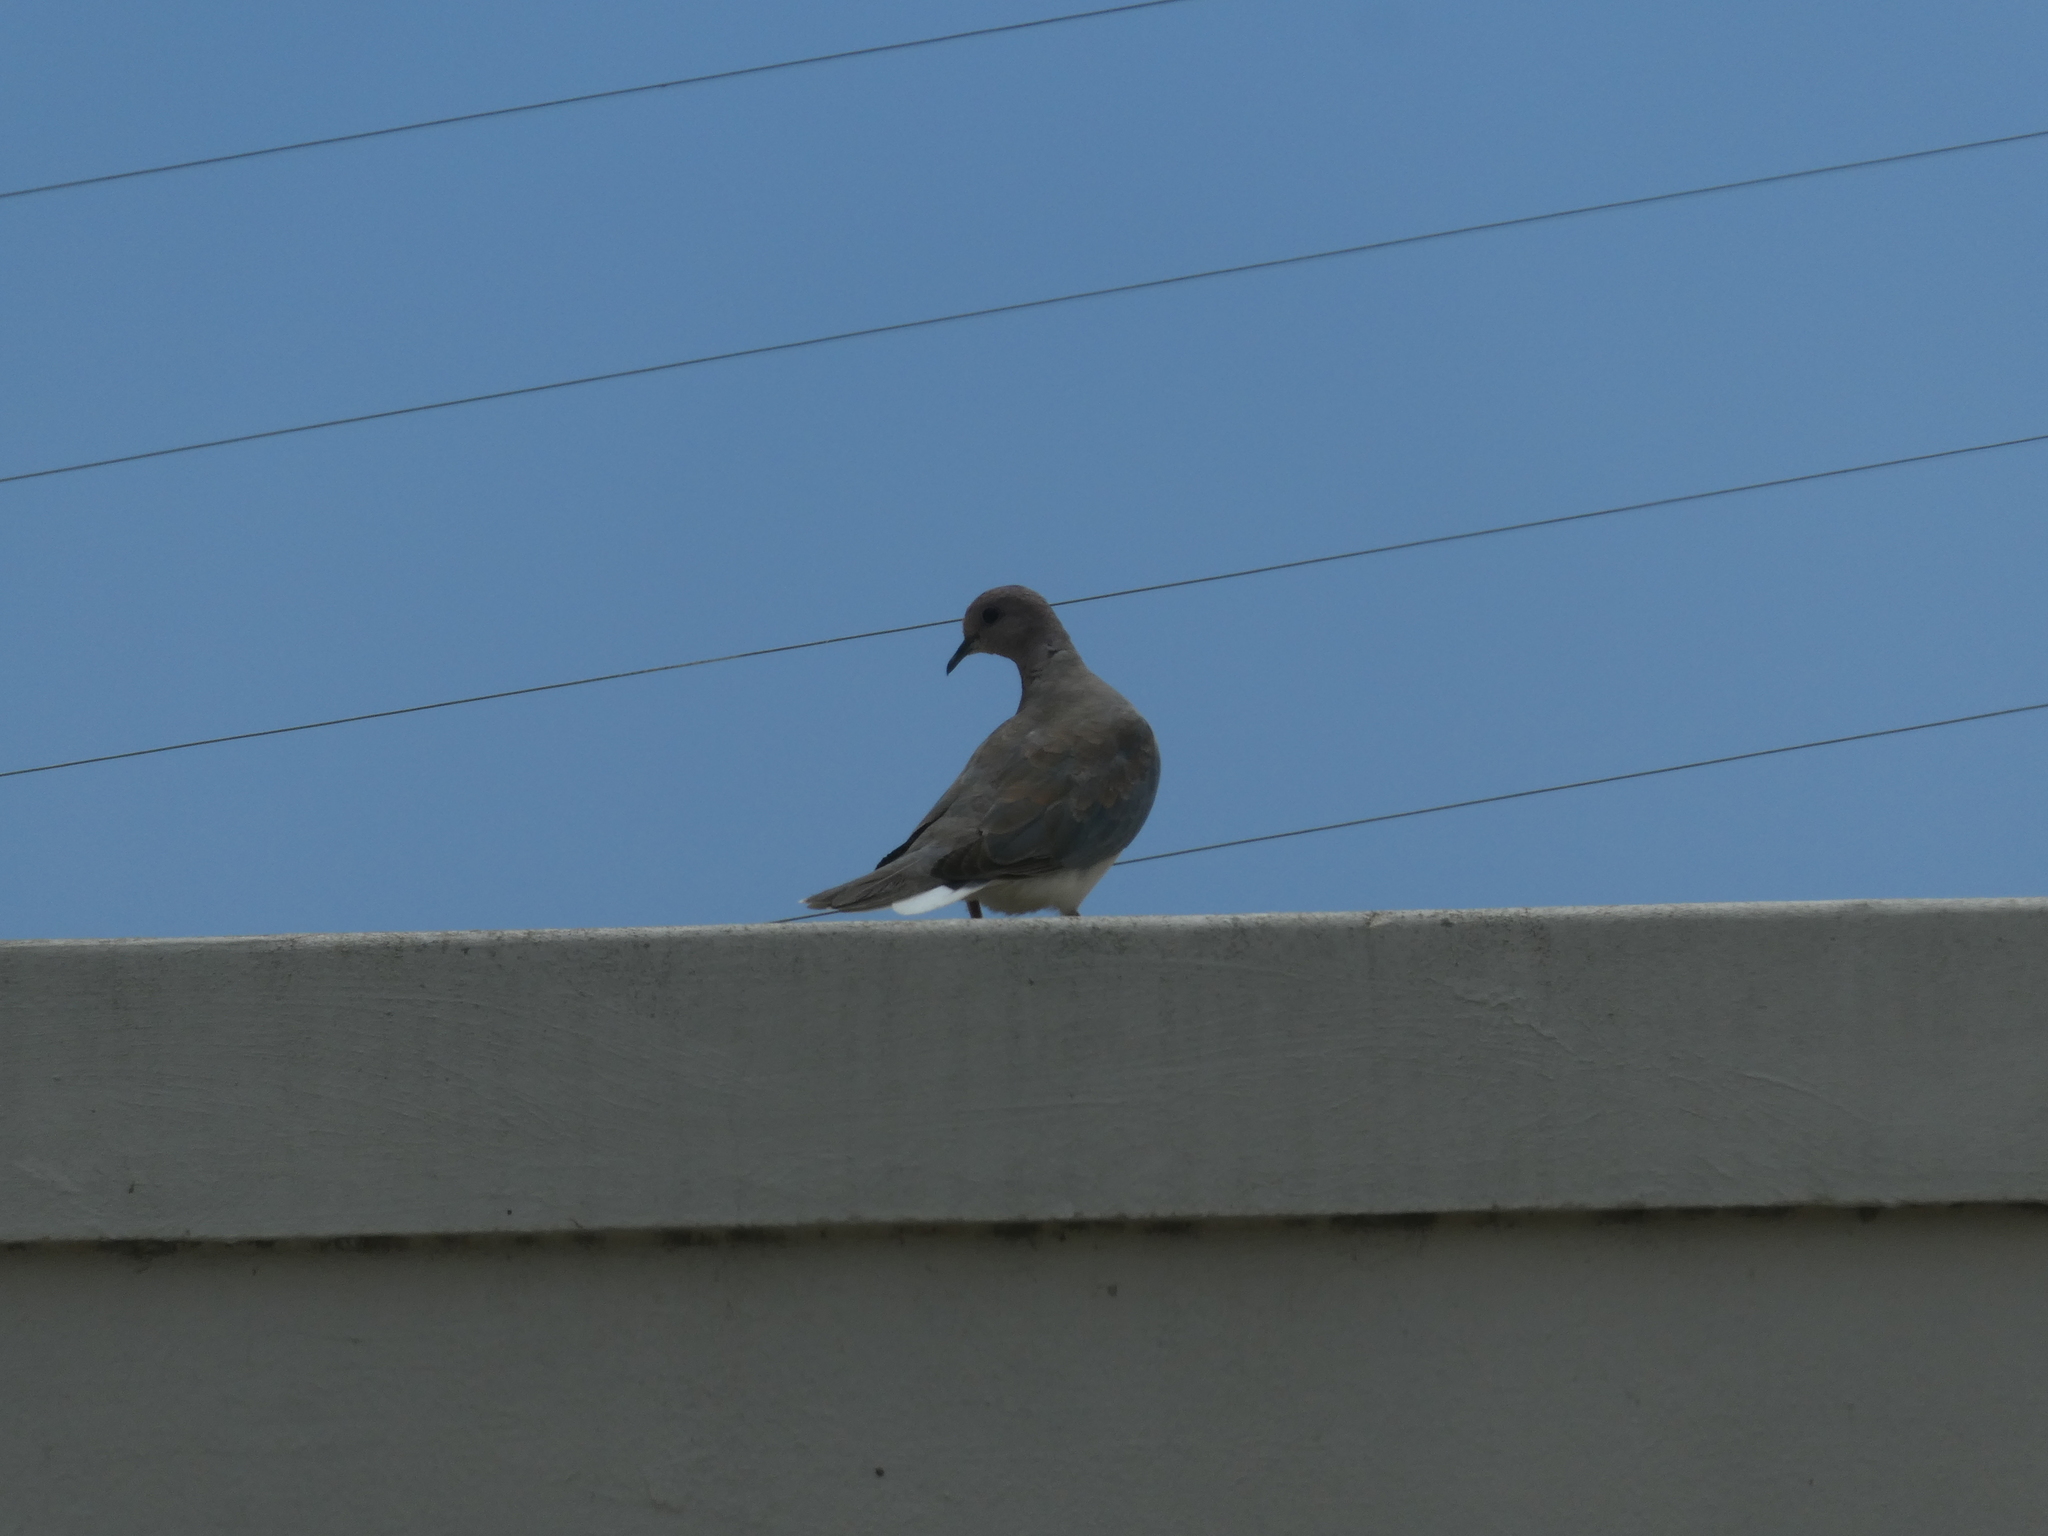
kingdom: Animalia
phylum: Chordata
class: Aves
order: Columbiformes
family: Columbidae
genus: Spilopelia
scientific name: Spilopelia senegalensis
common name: Laughing dove
